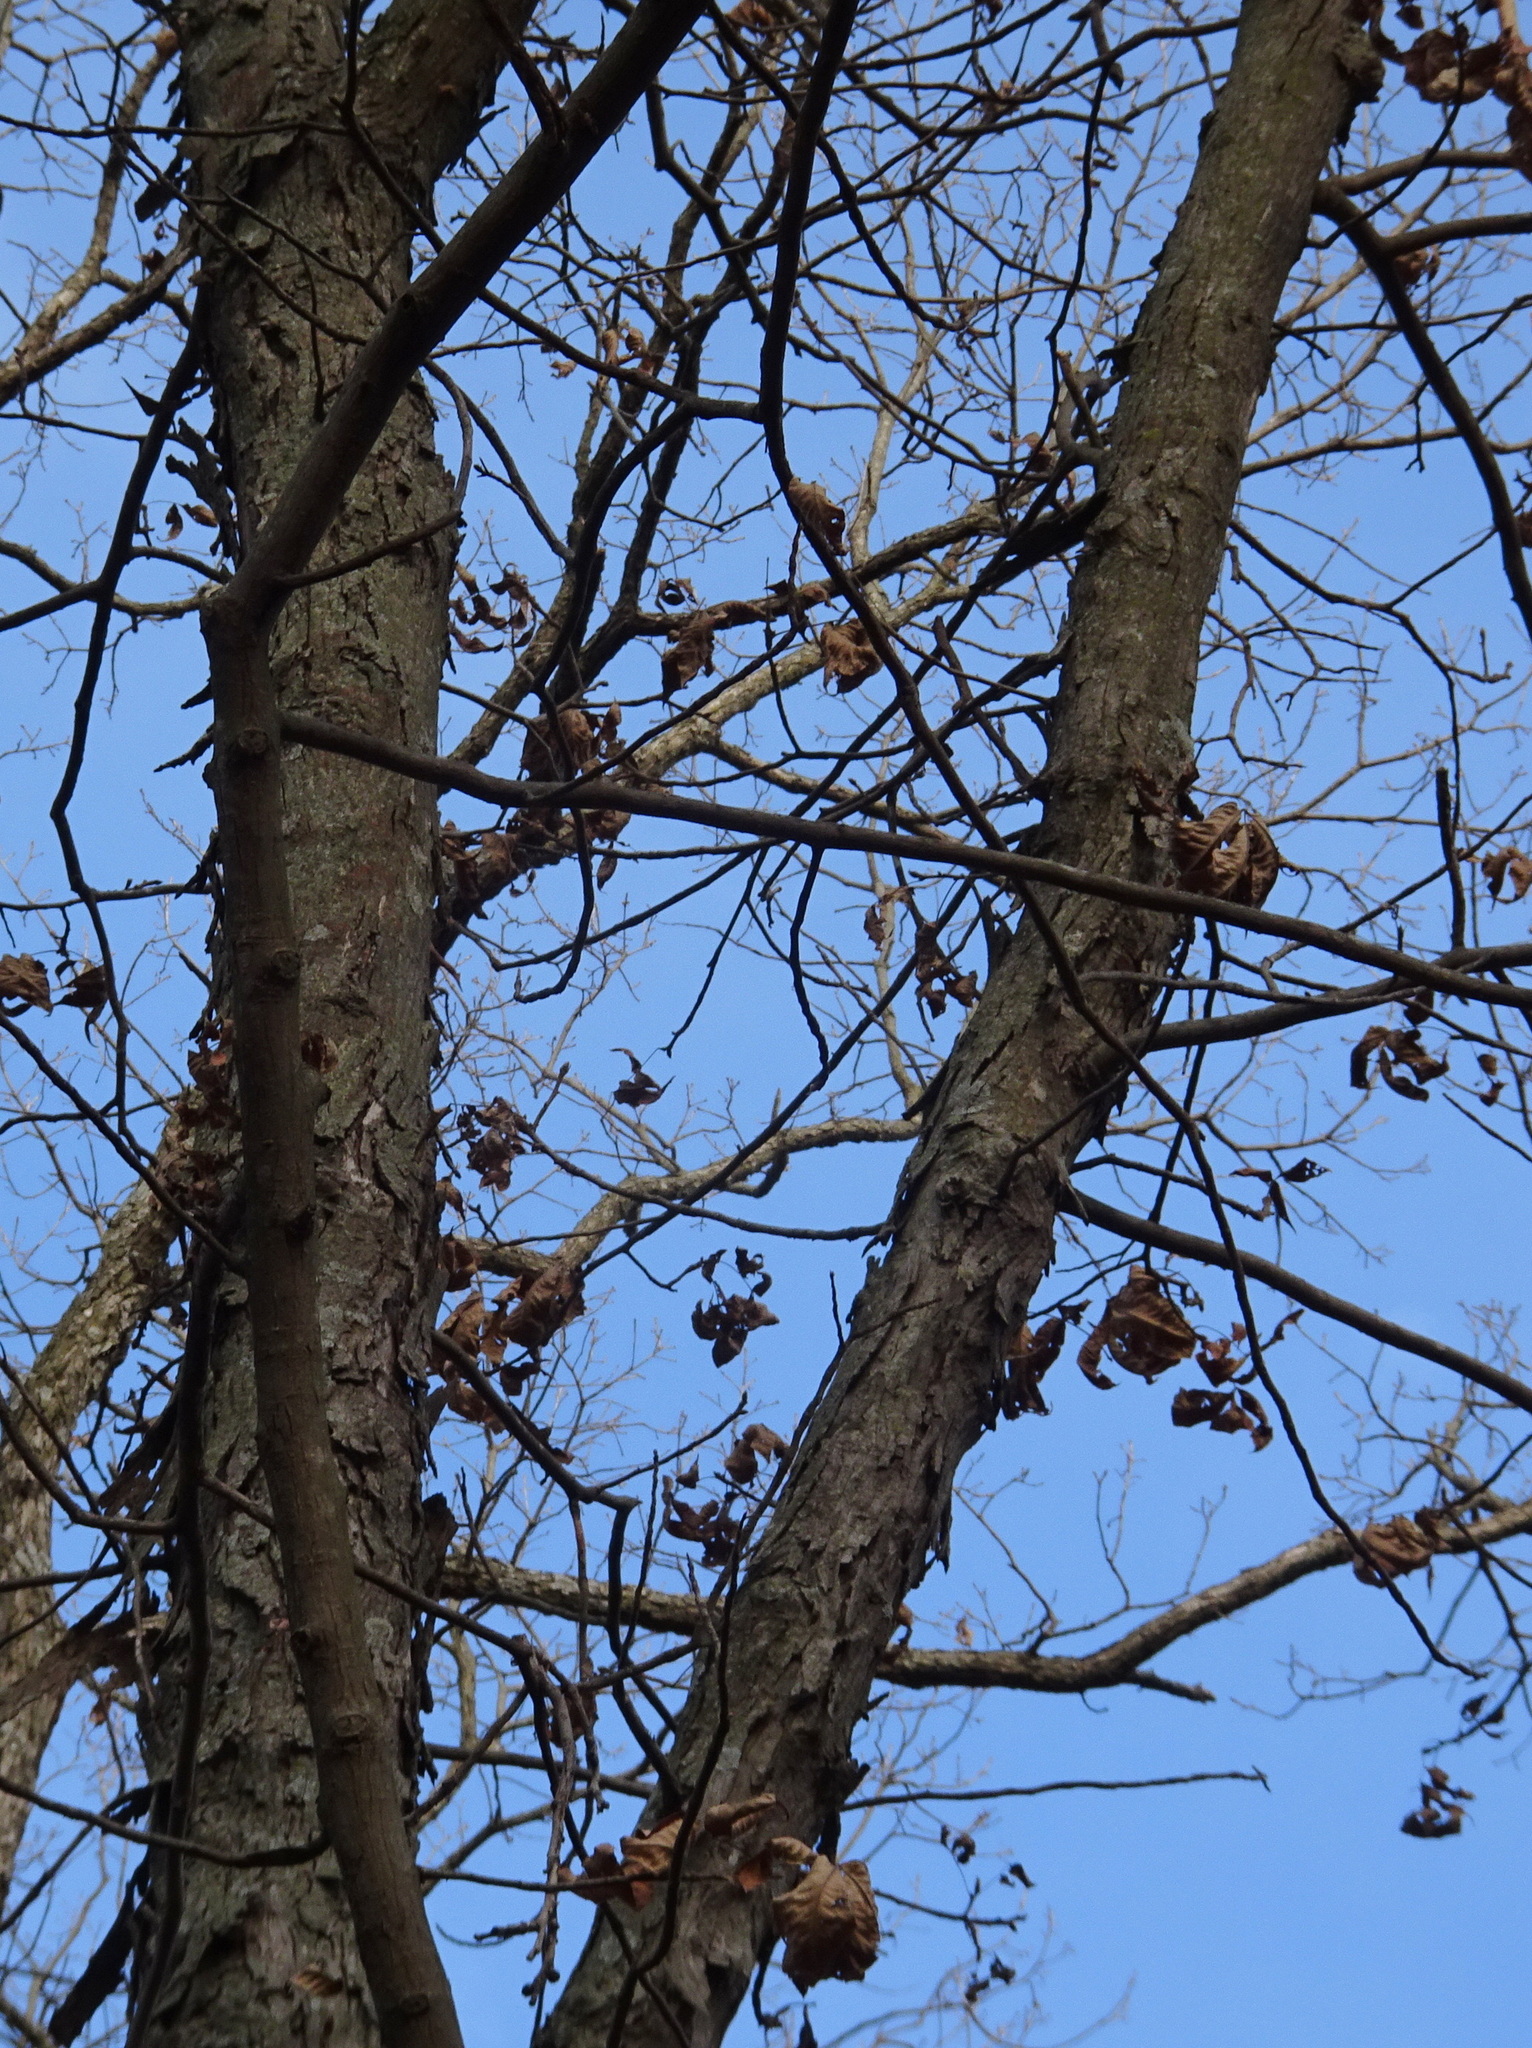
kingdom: Plantae
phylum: Tracheophyta
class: Magnoliopsida
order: Fagales
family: Juglandaceae
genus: Carya
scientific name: Carya ovata
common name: Shagbark hickory
